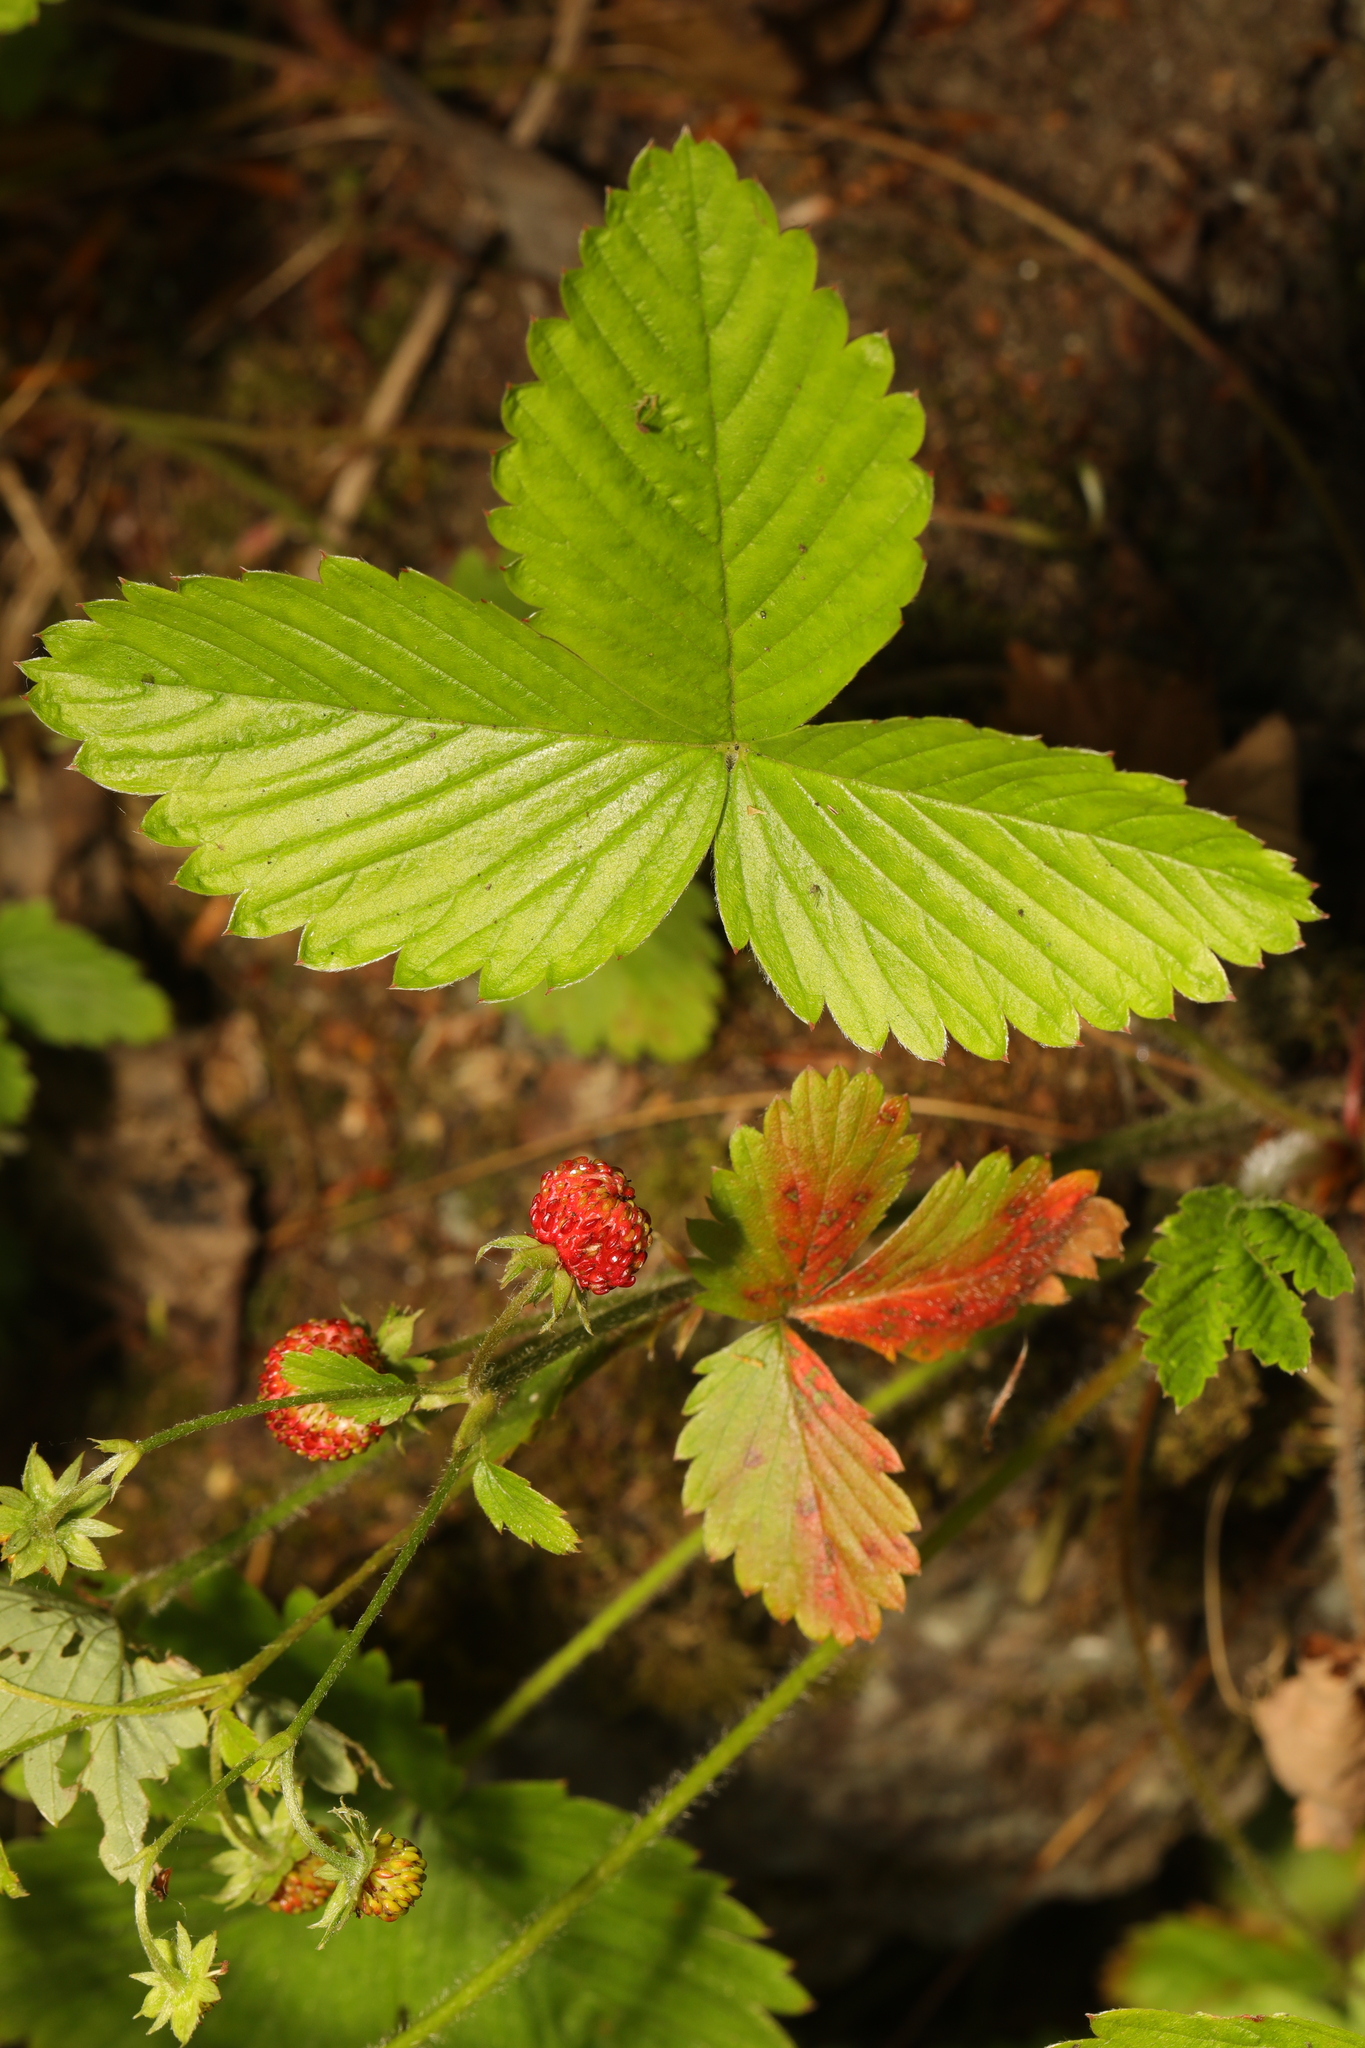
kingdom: Plantae
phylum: Tracheophyta
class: Magnoliopsida
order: Rosales
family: Rosaceae
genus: Fragaria
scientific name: Fragaria vesca
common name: Wild strawberry
